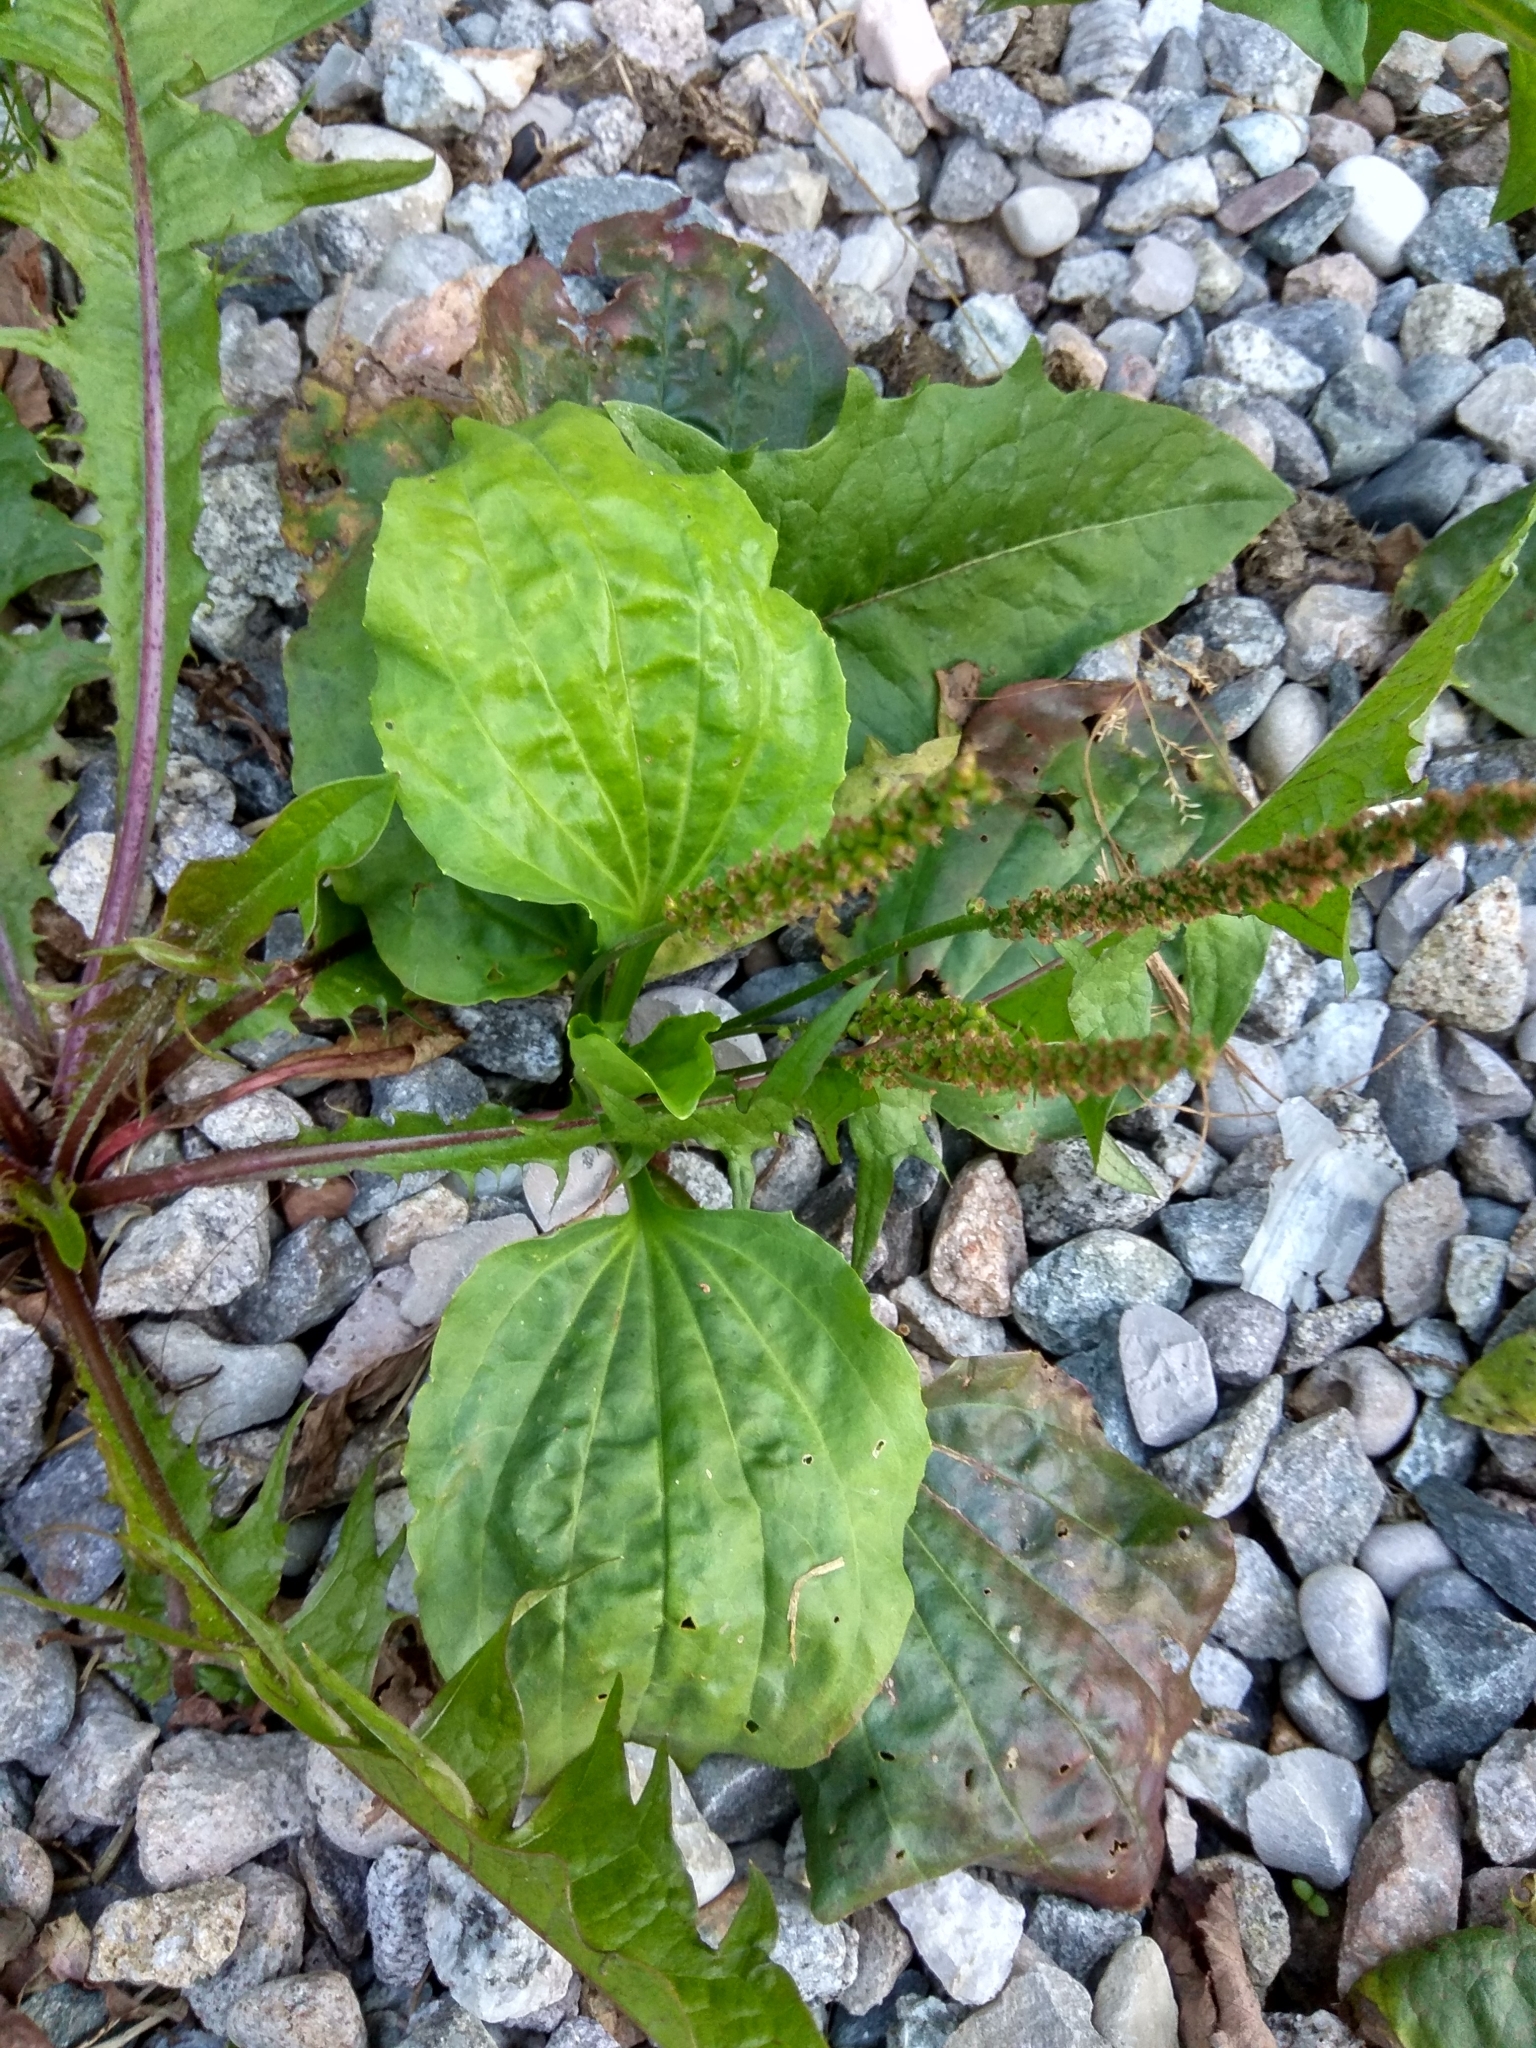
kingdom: Plantae
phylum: Tracheophyta
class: Magnoliopsida
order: Lamiales
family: Plantaginaceae
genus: Plantago
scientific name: Plantago major
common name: Common plantain
